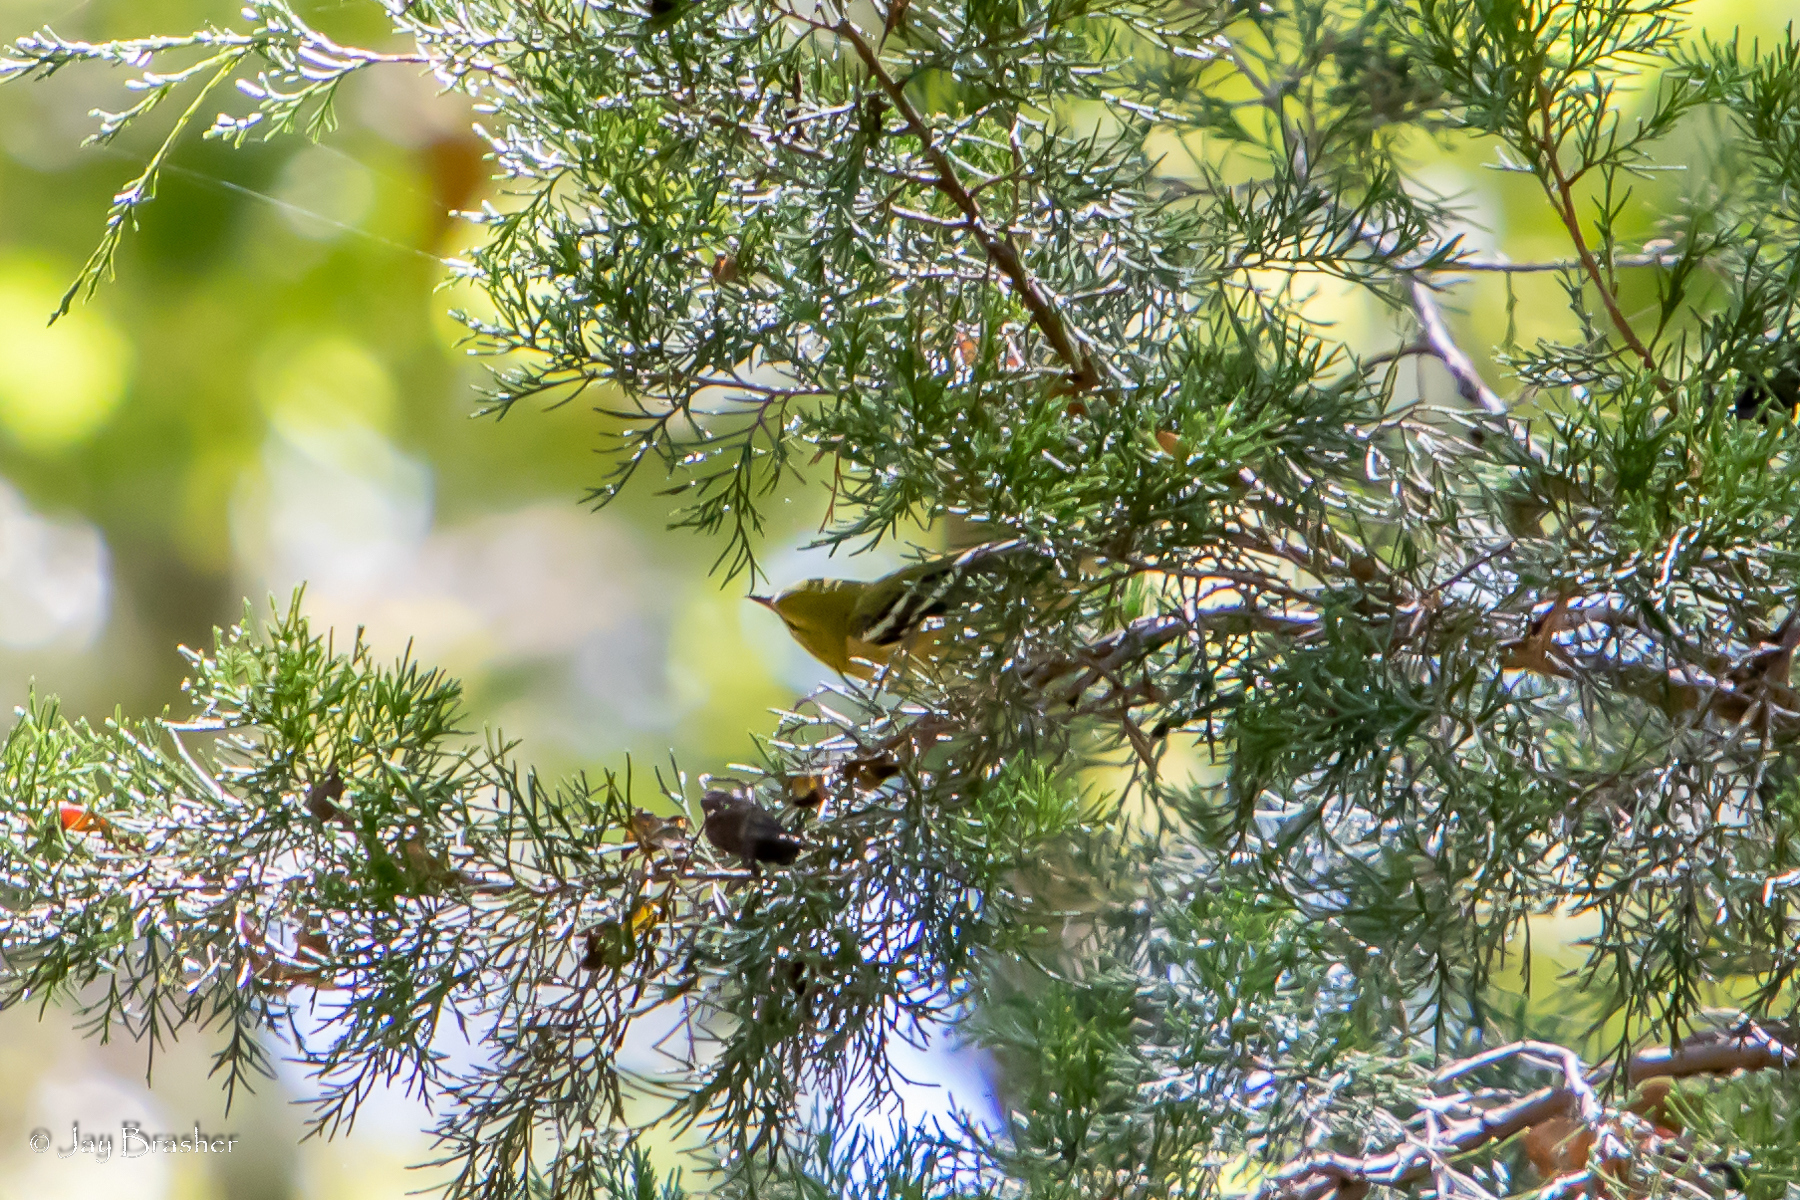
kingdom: Animalia
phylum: Chordata
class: Aves
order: Passeriformes
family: Parulidae
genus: Setophaga
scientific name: Setophaga castanea
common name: Bay-breasted warbler
